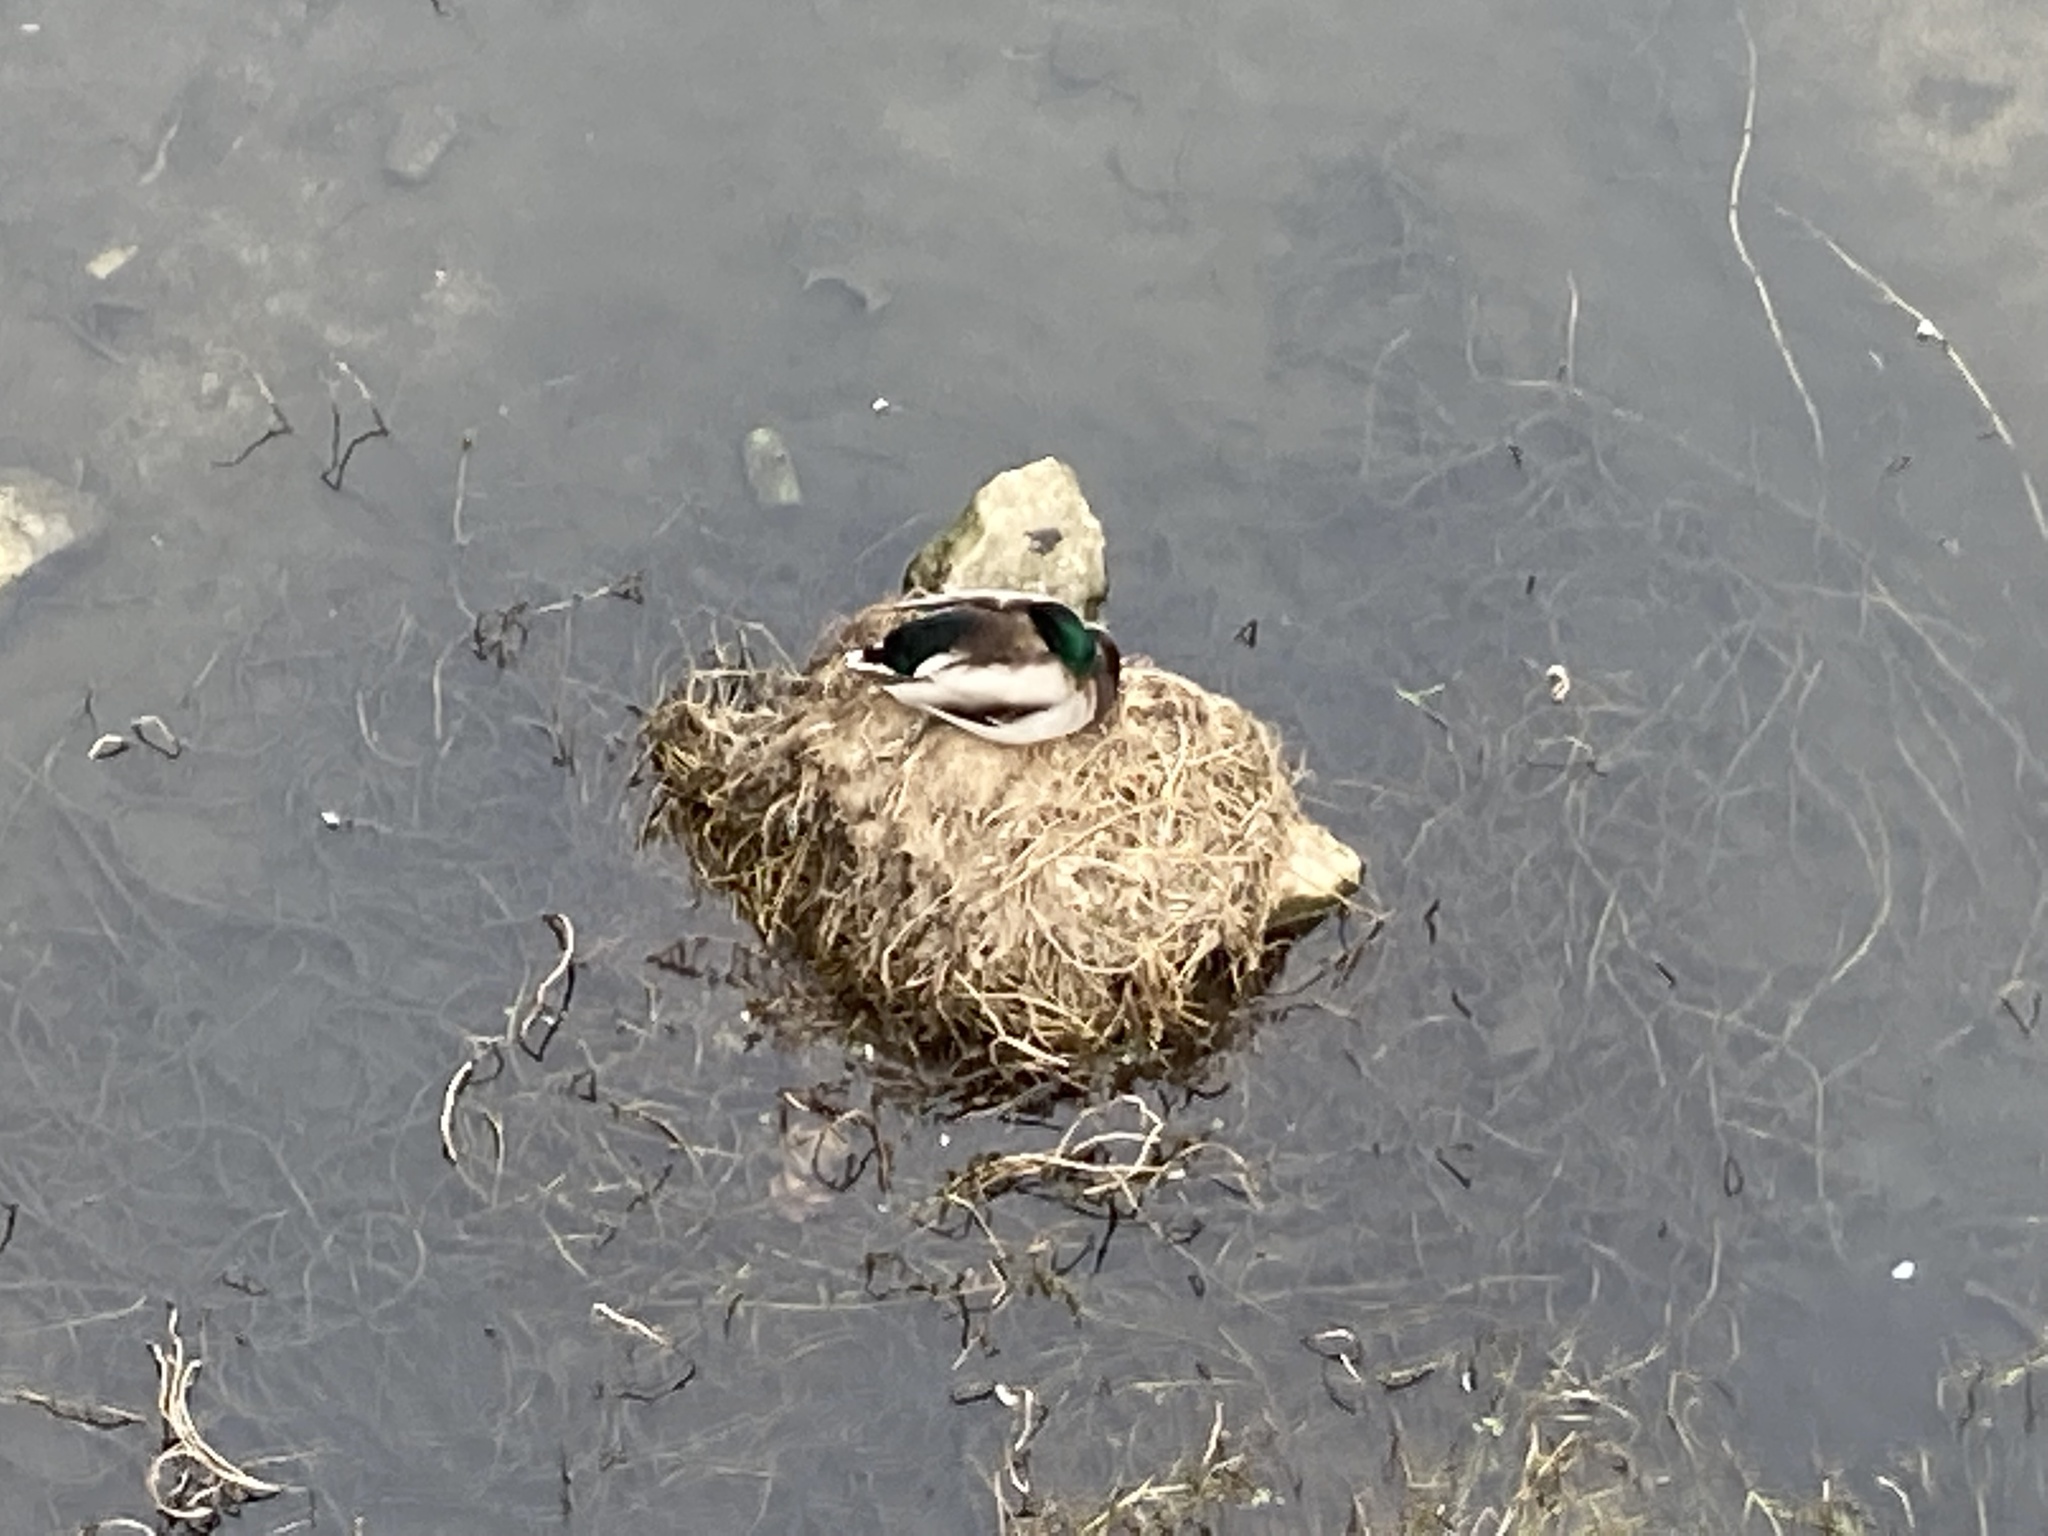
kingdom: Animalia
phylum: Chordata
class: Aves
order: Anseriformes
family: Anatidae
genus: Anas
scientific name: Anas platyrhynchos
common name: Mallard
